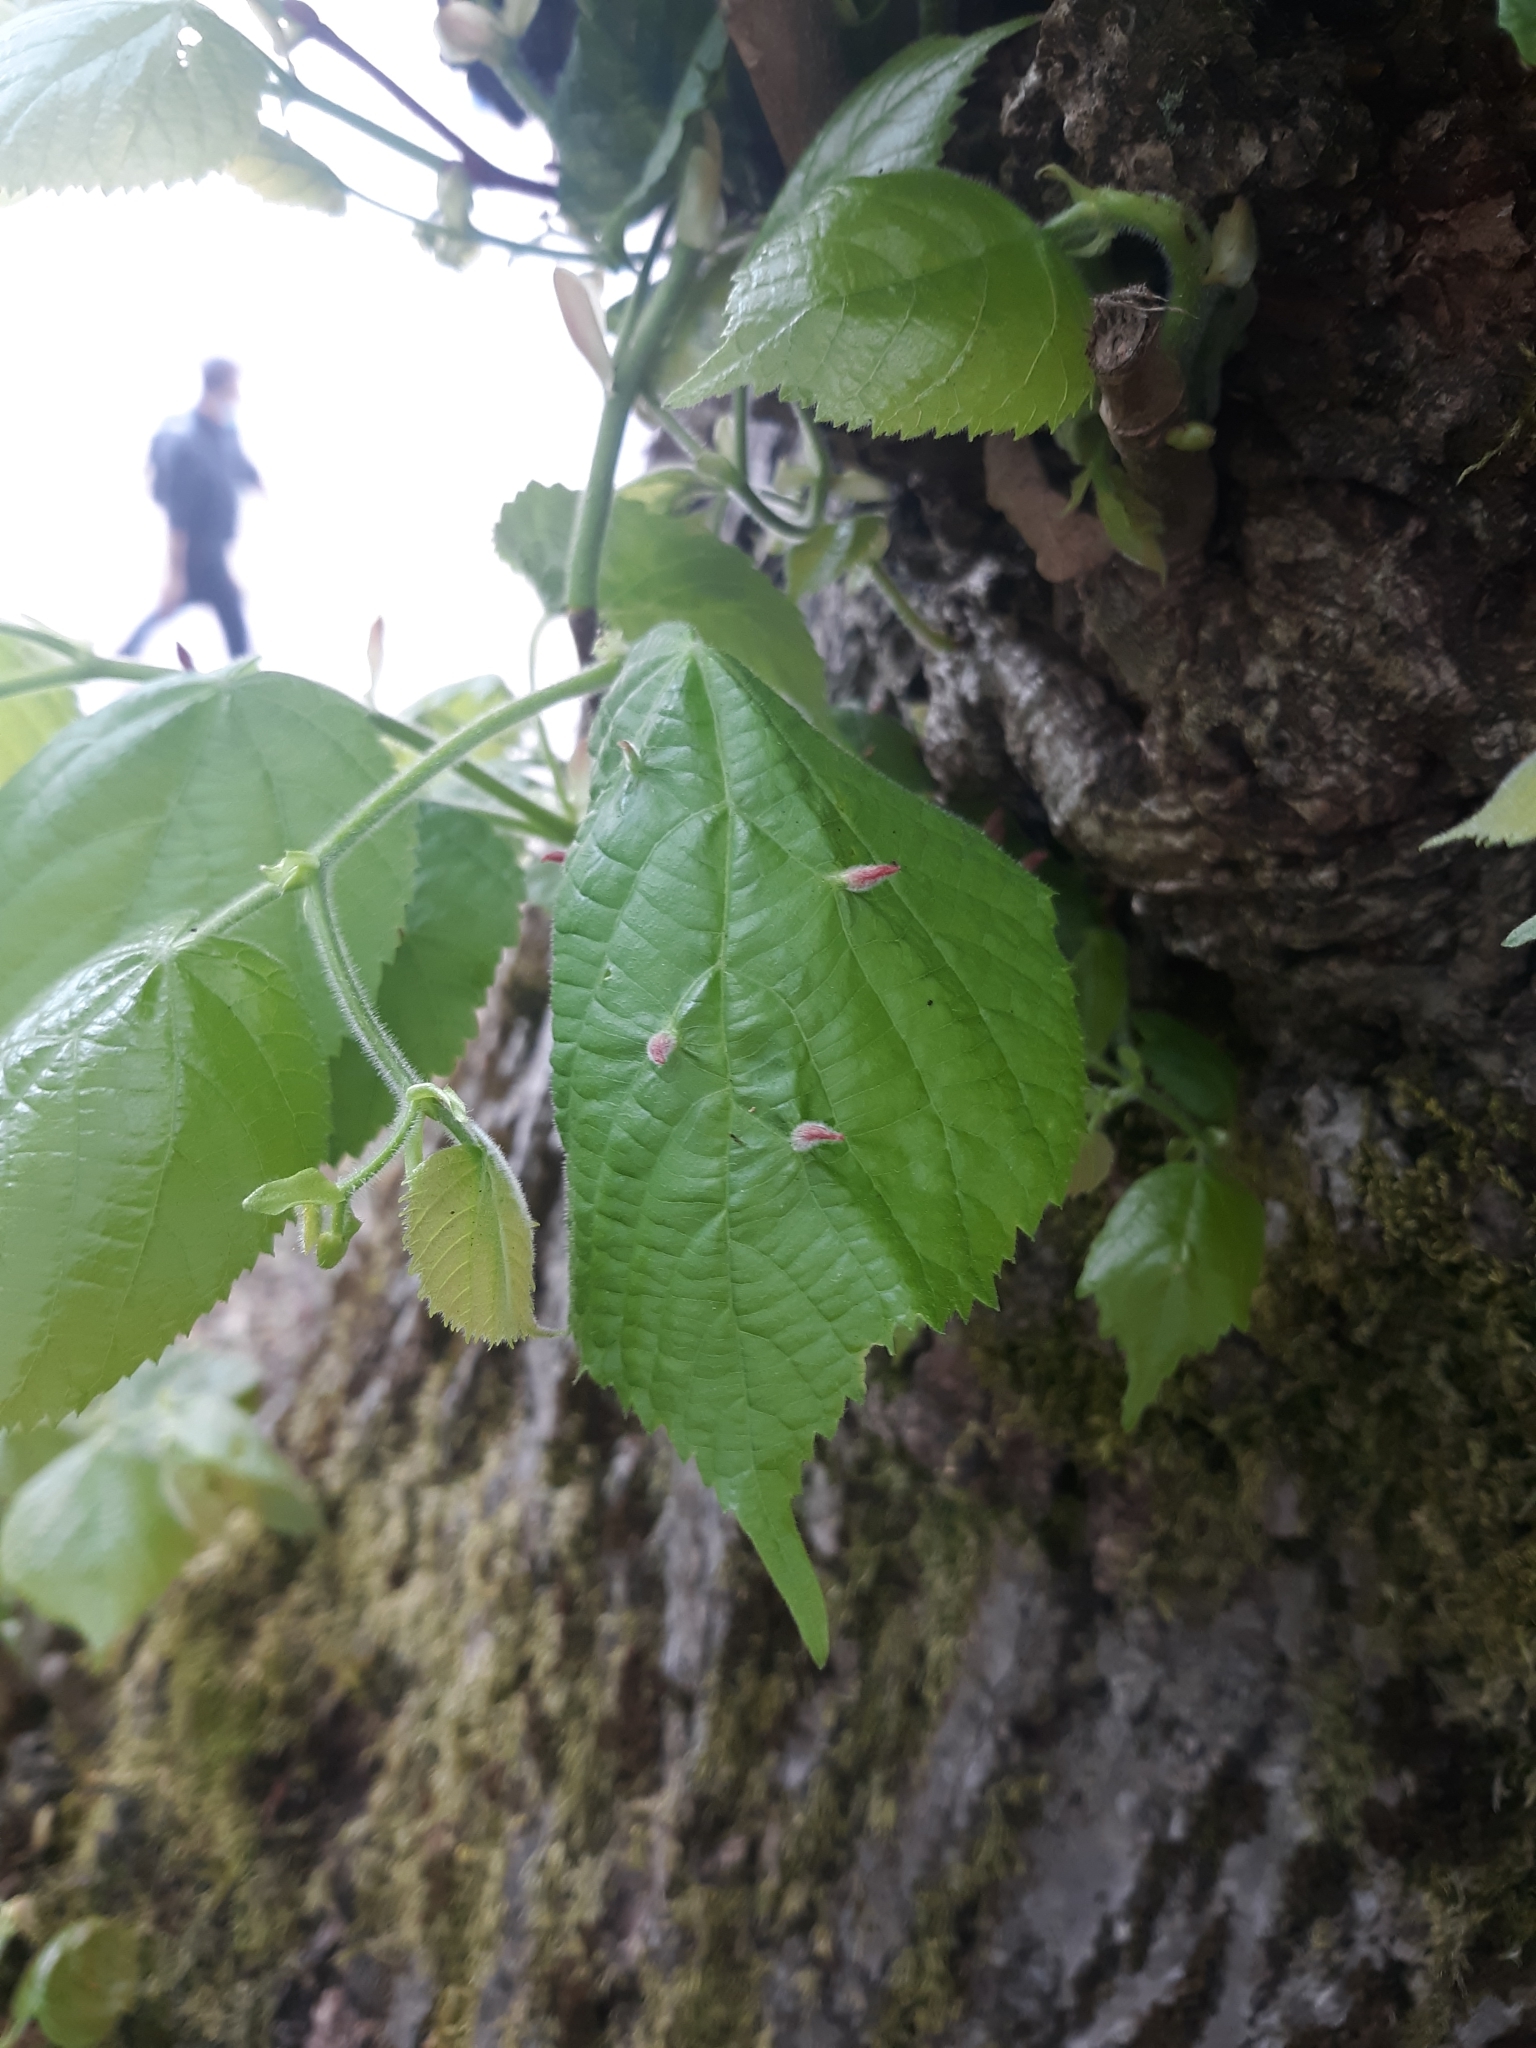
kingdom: Animalia
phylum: Arthropoda
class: Arachnida
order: Trombidiformes
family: Eriophyidae
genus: Eriophyes
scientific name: Eriophyes tiliae
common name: Red nail gall mite
